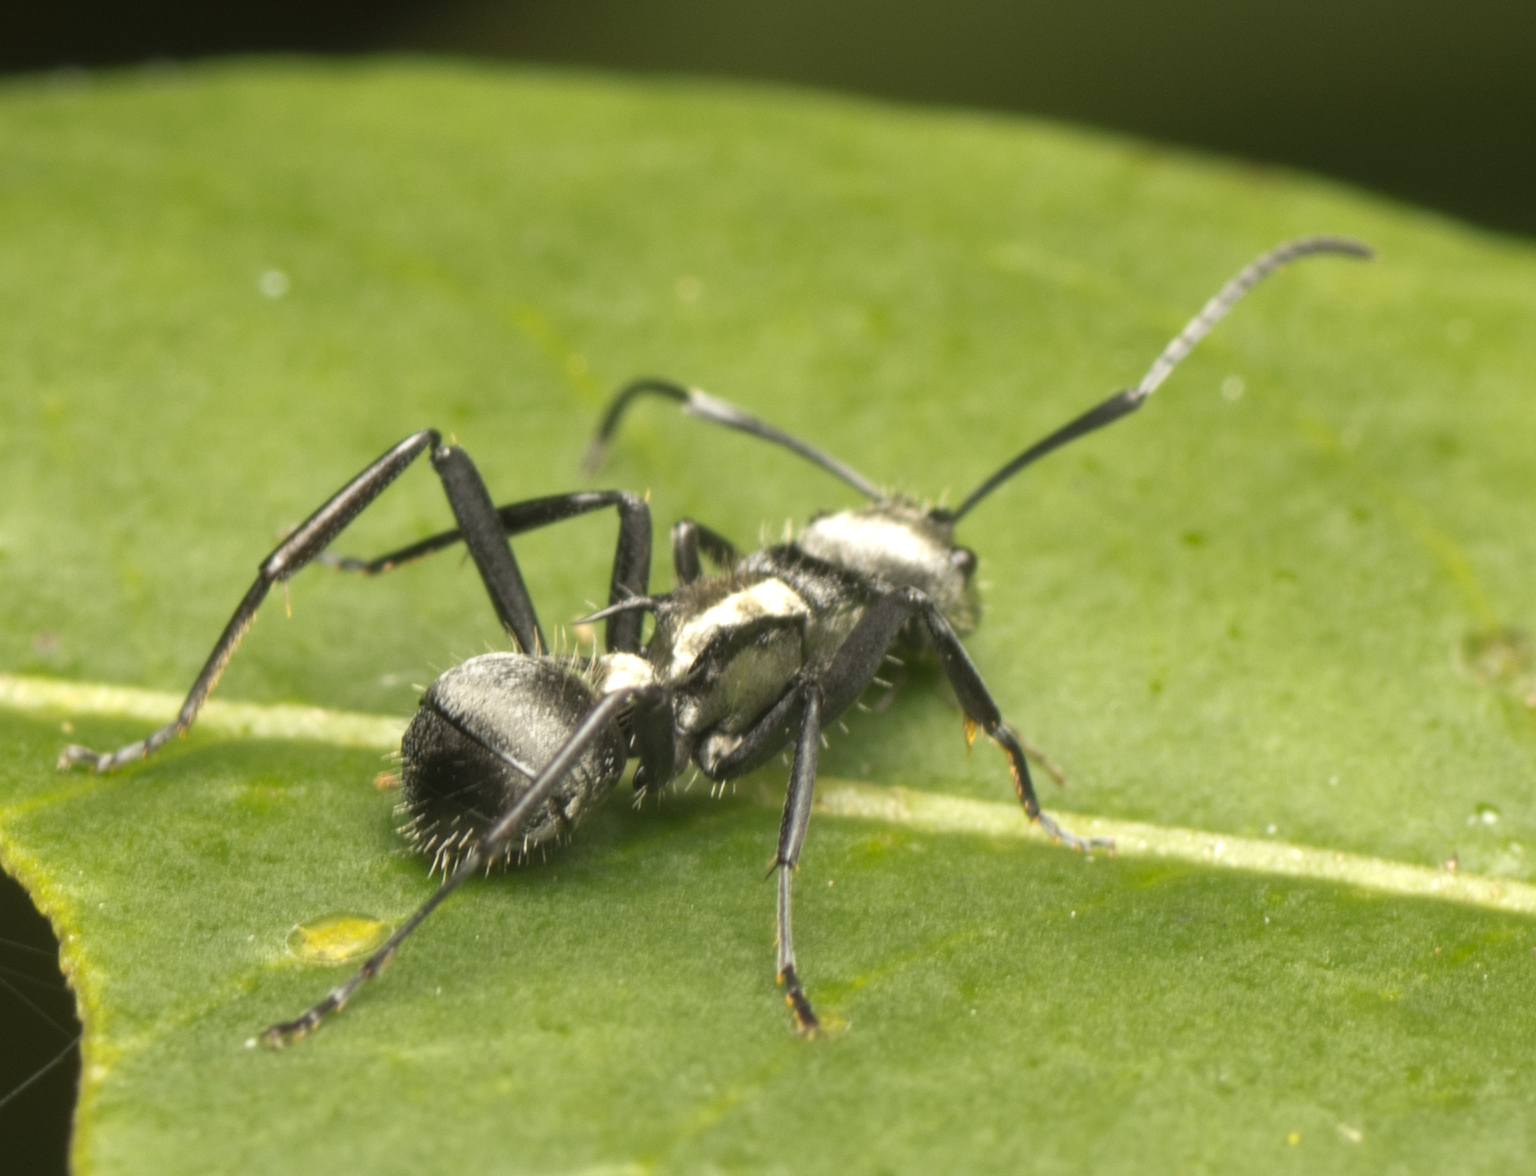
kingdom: Animalia
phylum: Arthropoda
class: Insecta
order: Hymenoptera
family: Formicidae
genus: Polyrhachis
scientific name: Polyrhachis daemeli
